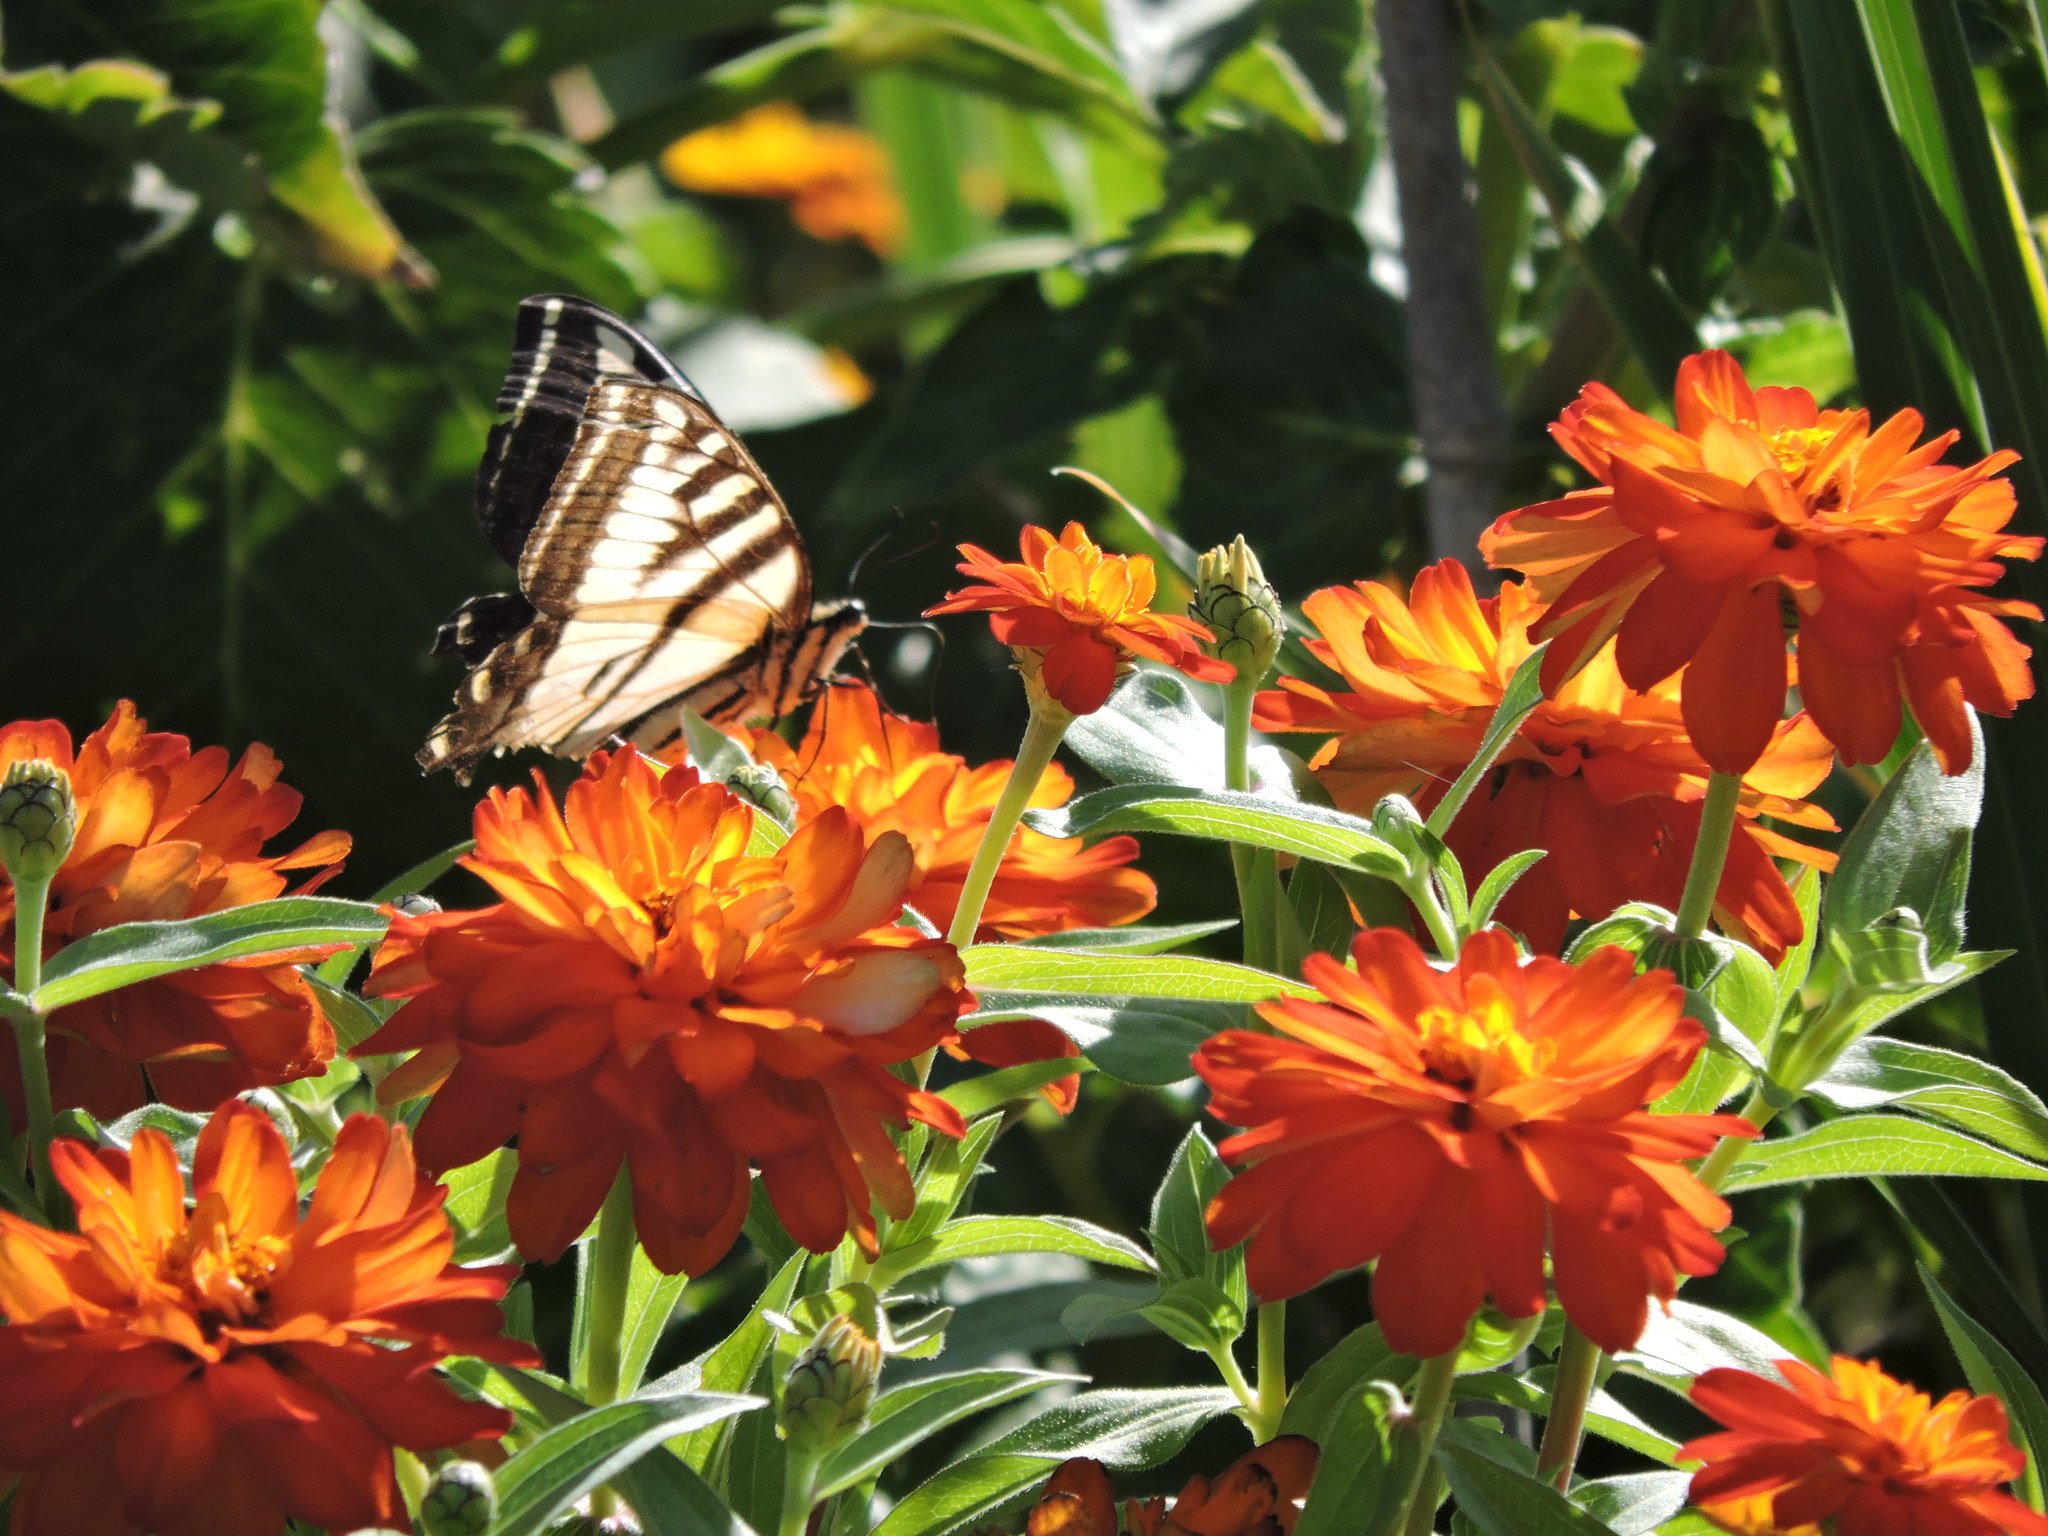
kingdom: Animalia
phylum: Arthropoda
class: Insecta
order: Lepidoptera
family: Papilionidae
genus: Papilio
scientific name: Papilio rutulus
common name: Western tiger swallowtail
